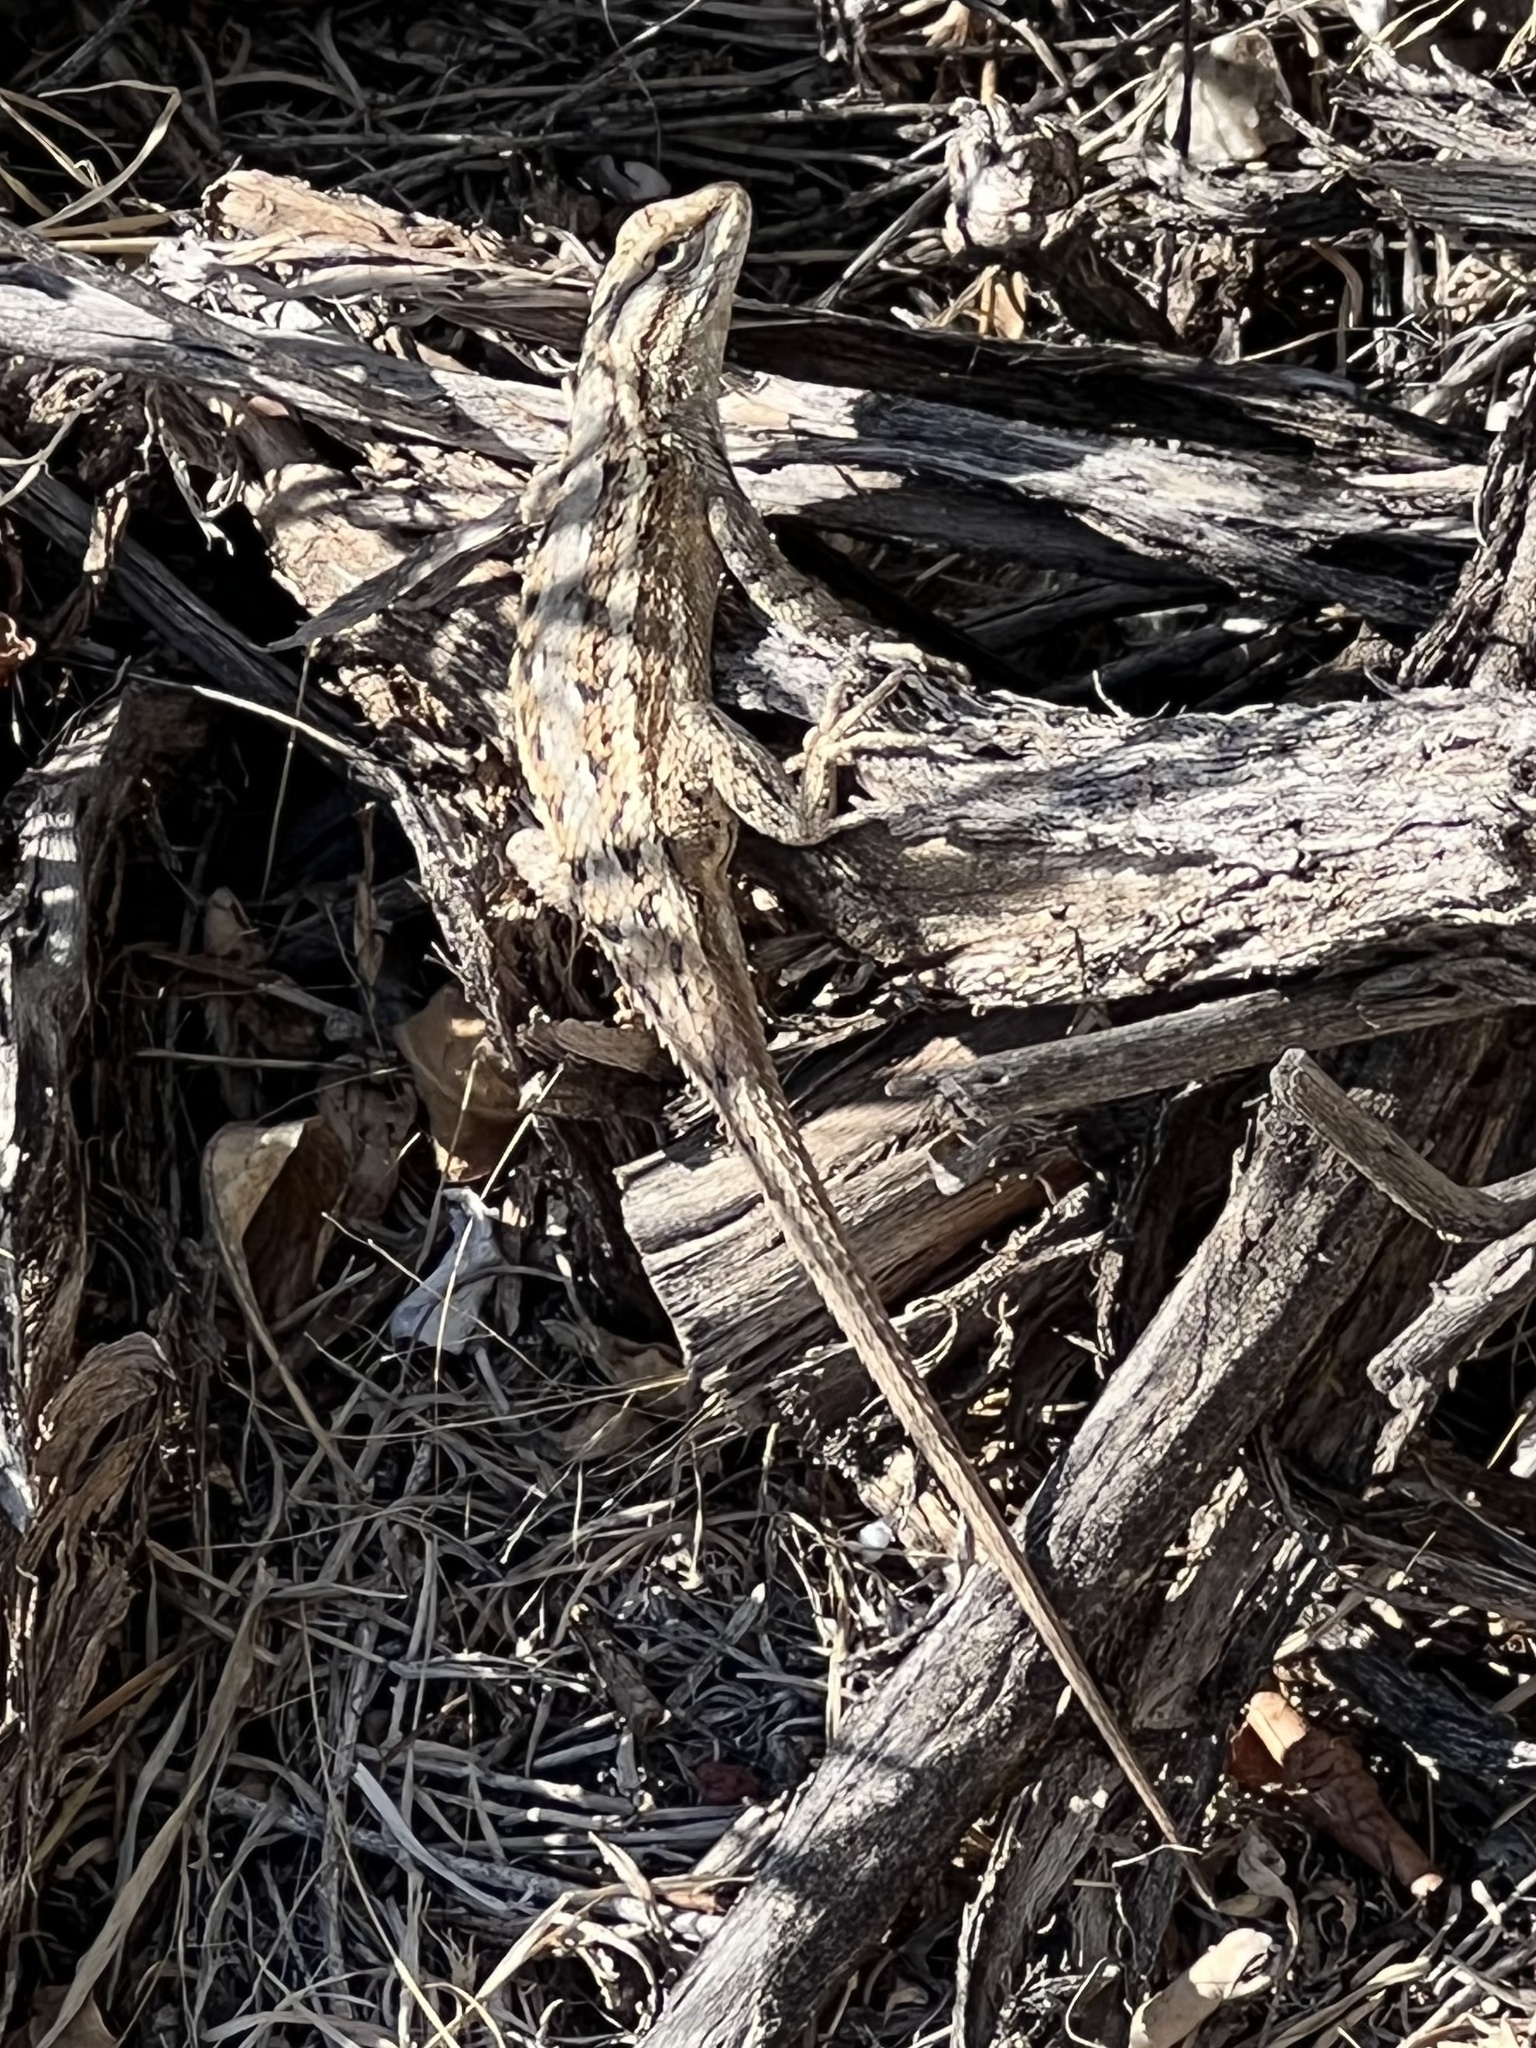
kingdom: Animalia
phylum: Chordata
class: Squamata
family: Phrynosomatidae
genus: Sceloporus
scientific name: Sceloporus cowlesi
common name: White sands prairie lizard
